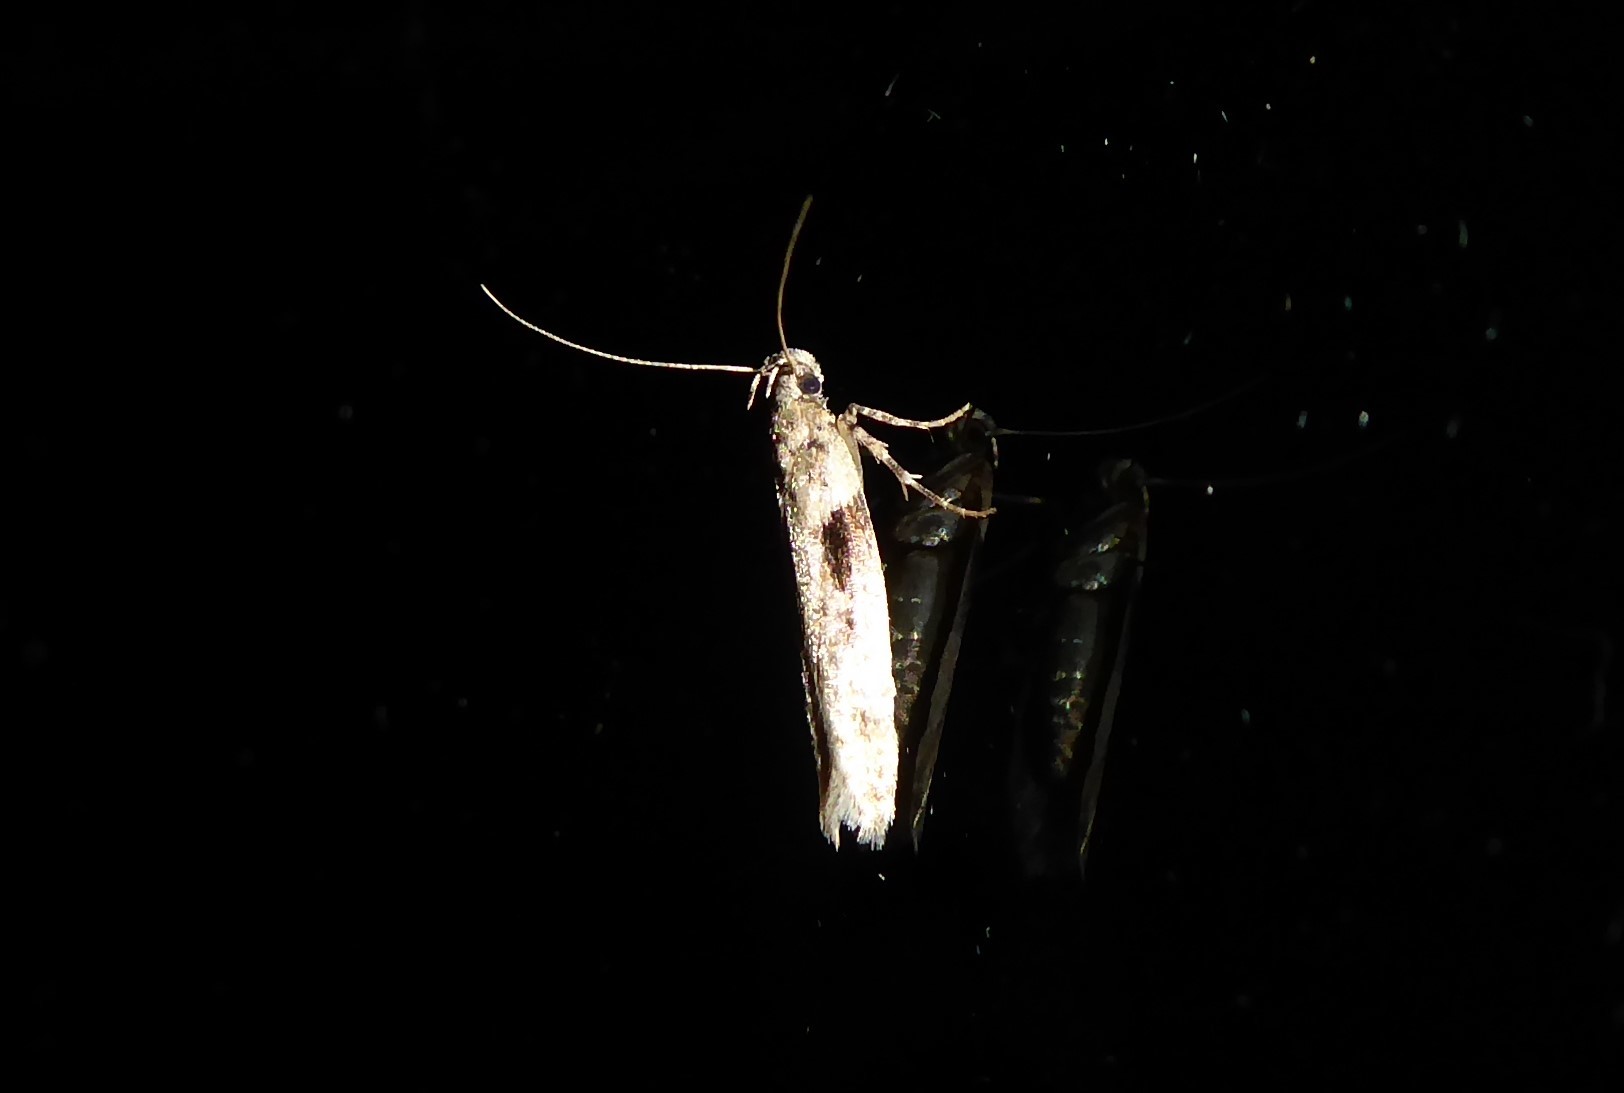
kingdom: Animalia
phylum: Arthropoda
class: Insecta
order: Lepidoptera
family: Gelechiidae
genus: Symmetrischema
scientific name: Symmetrischema tangolias
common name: Moth
